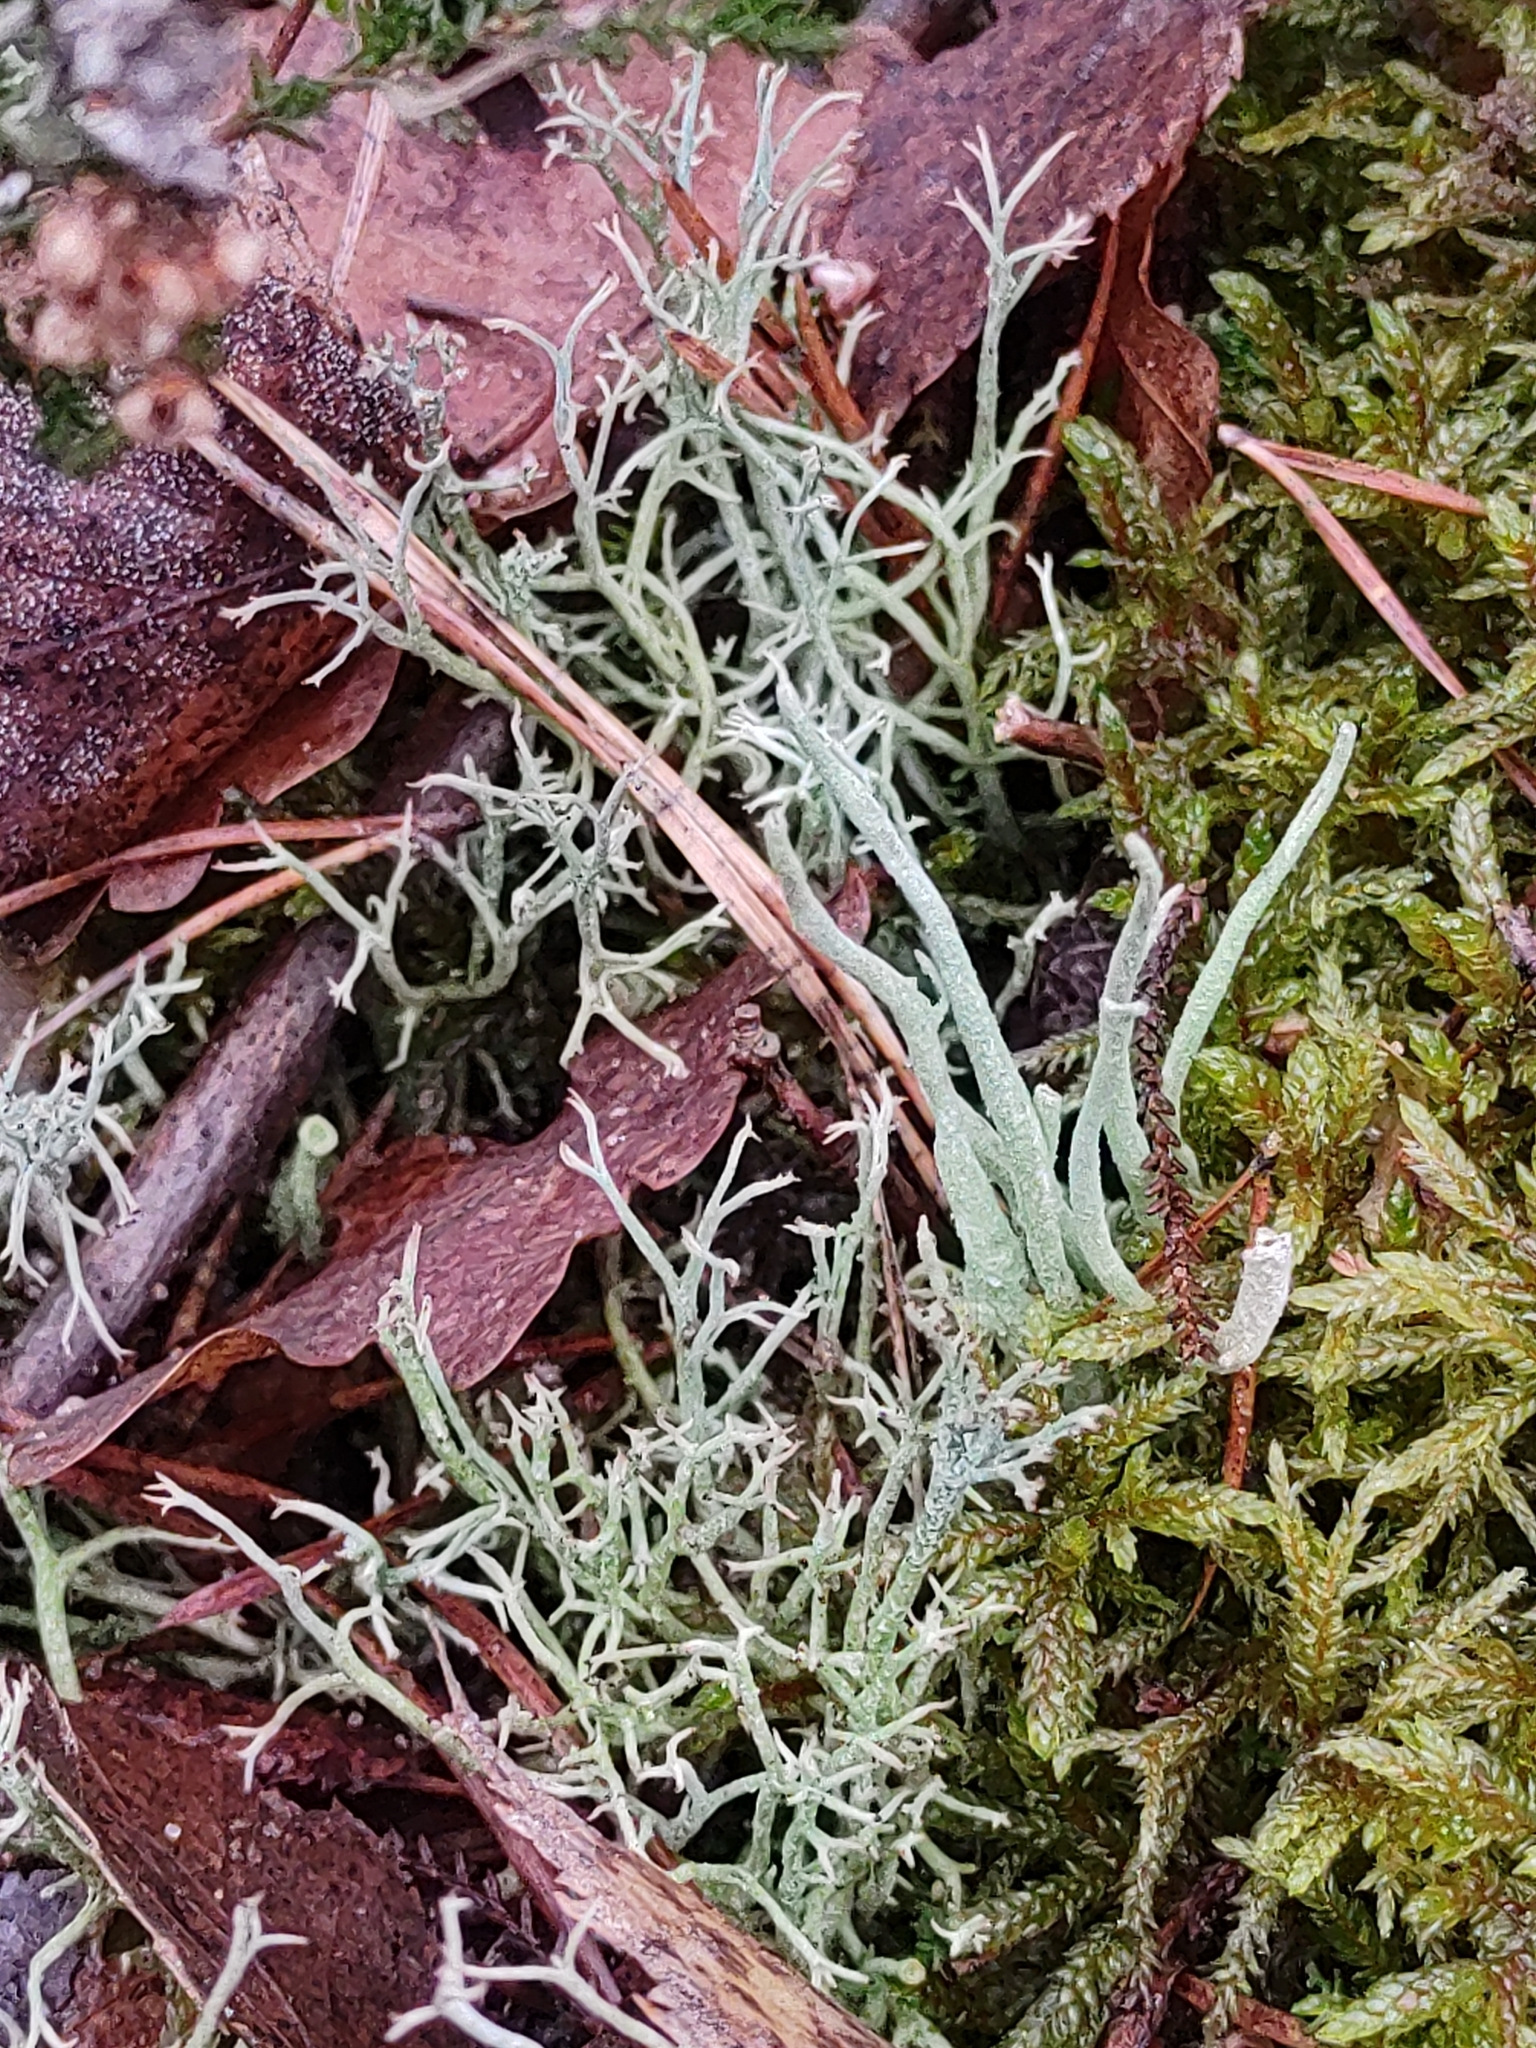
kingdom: Fungi
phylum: Ascomycota
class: Lecanoromycetes
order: Lecanorales
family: Cladoniaceae
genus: Cladonia
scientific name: Cladonia furcata
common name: Many-forked cladonia
